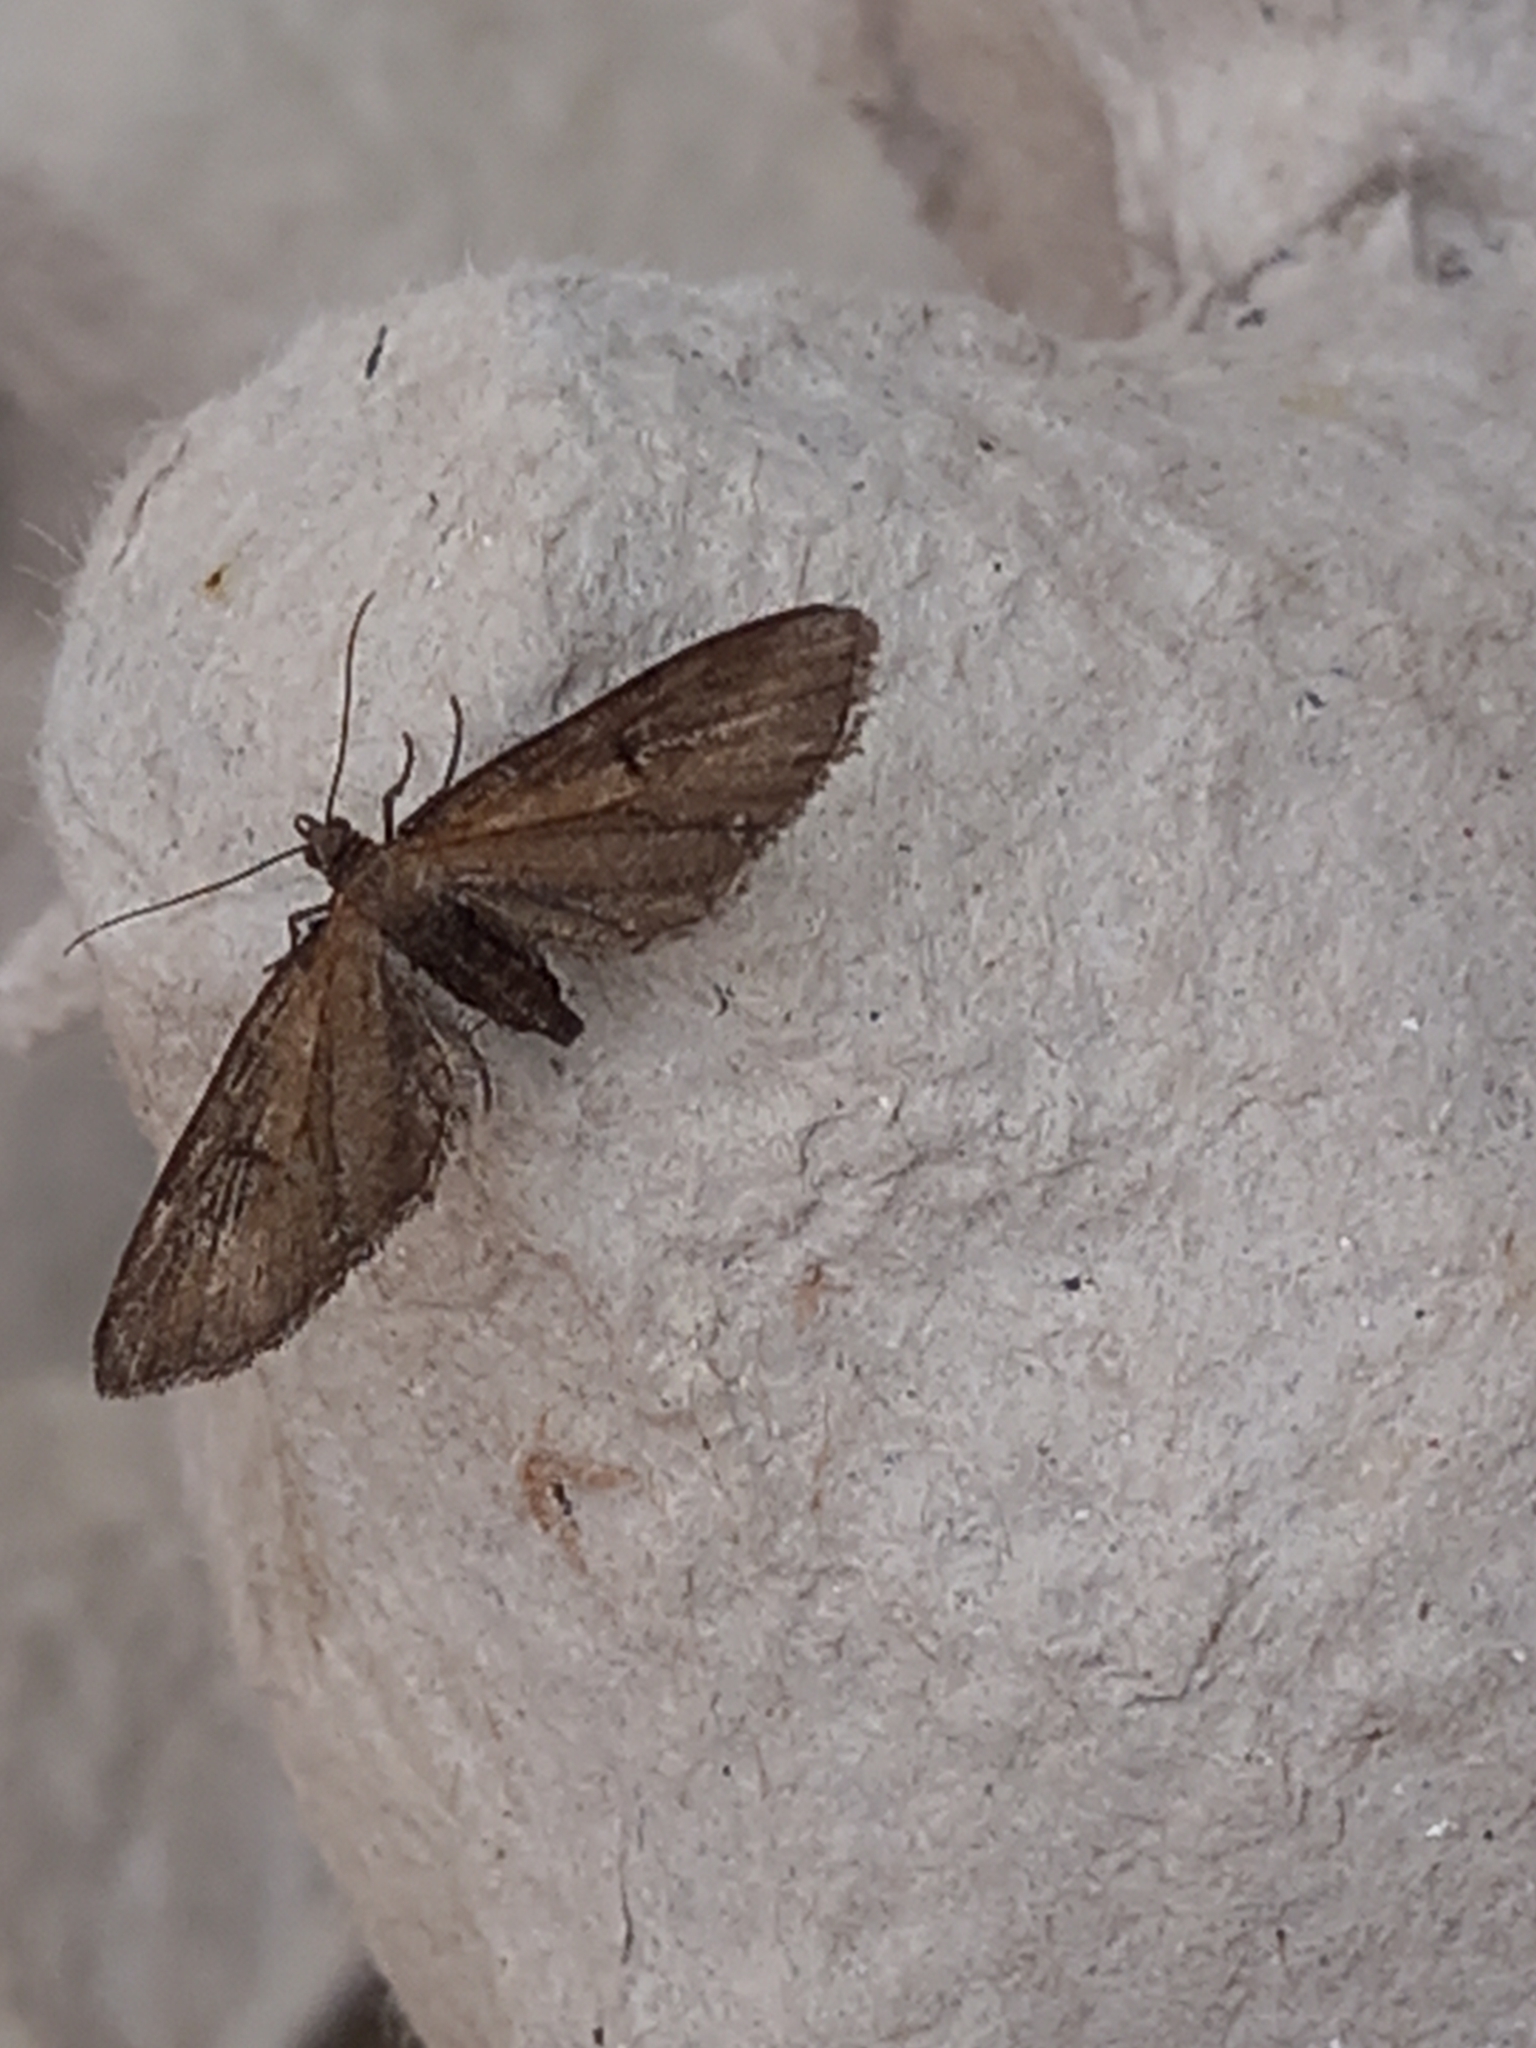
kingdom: Animalia
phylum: Arthropoda
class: Insecta
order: Lepidoptera
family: Geometridae
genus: Eupithecia
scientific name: Eupithecia absinthiata
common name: Wormwood pug
